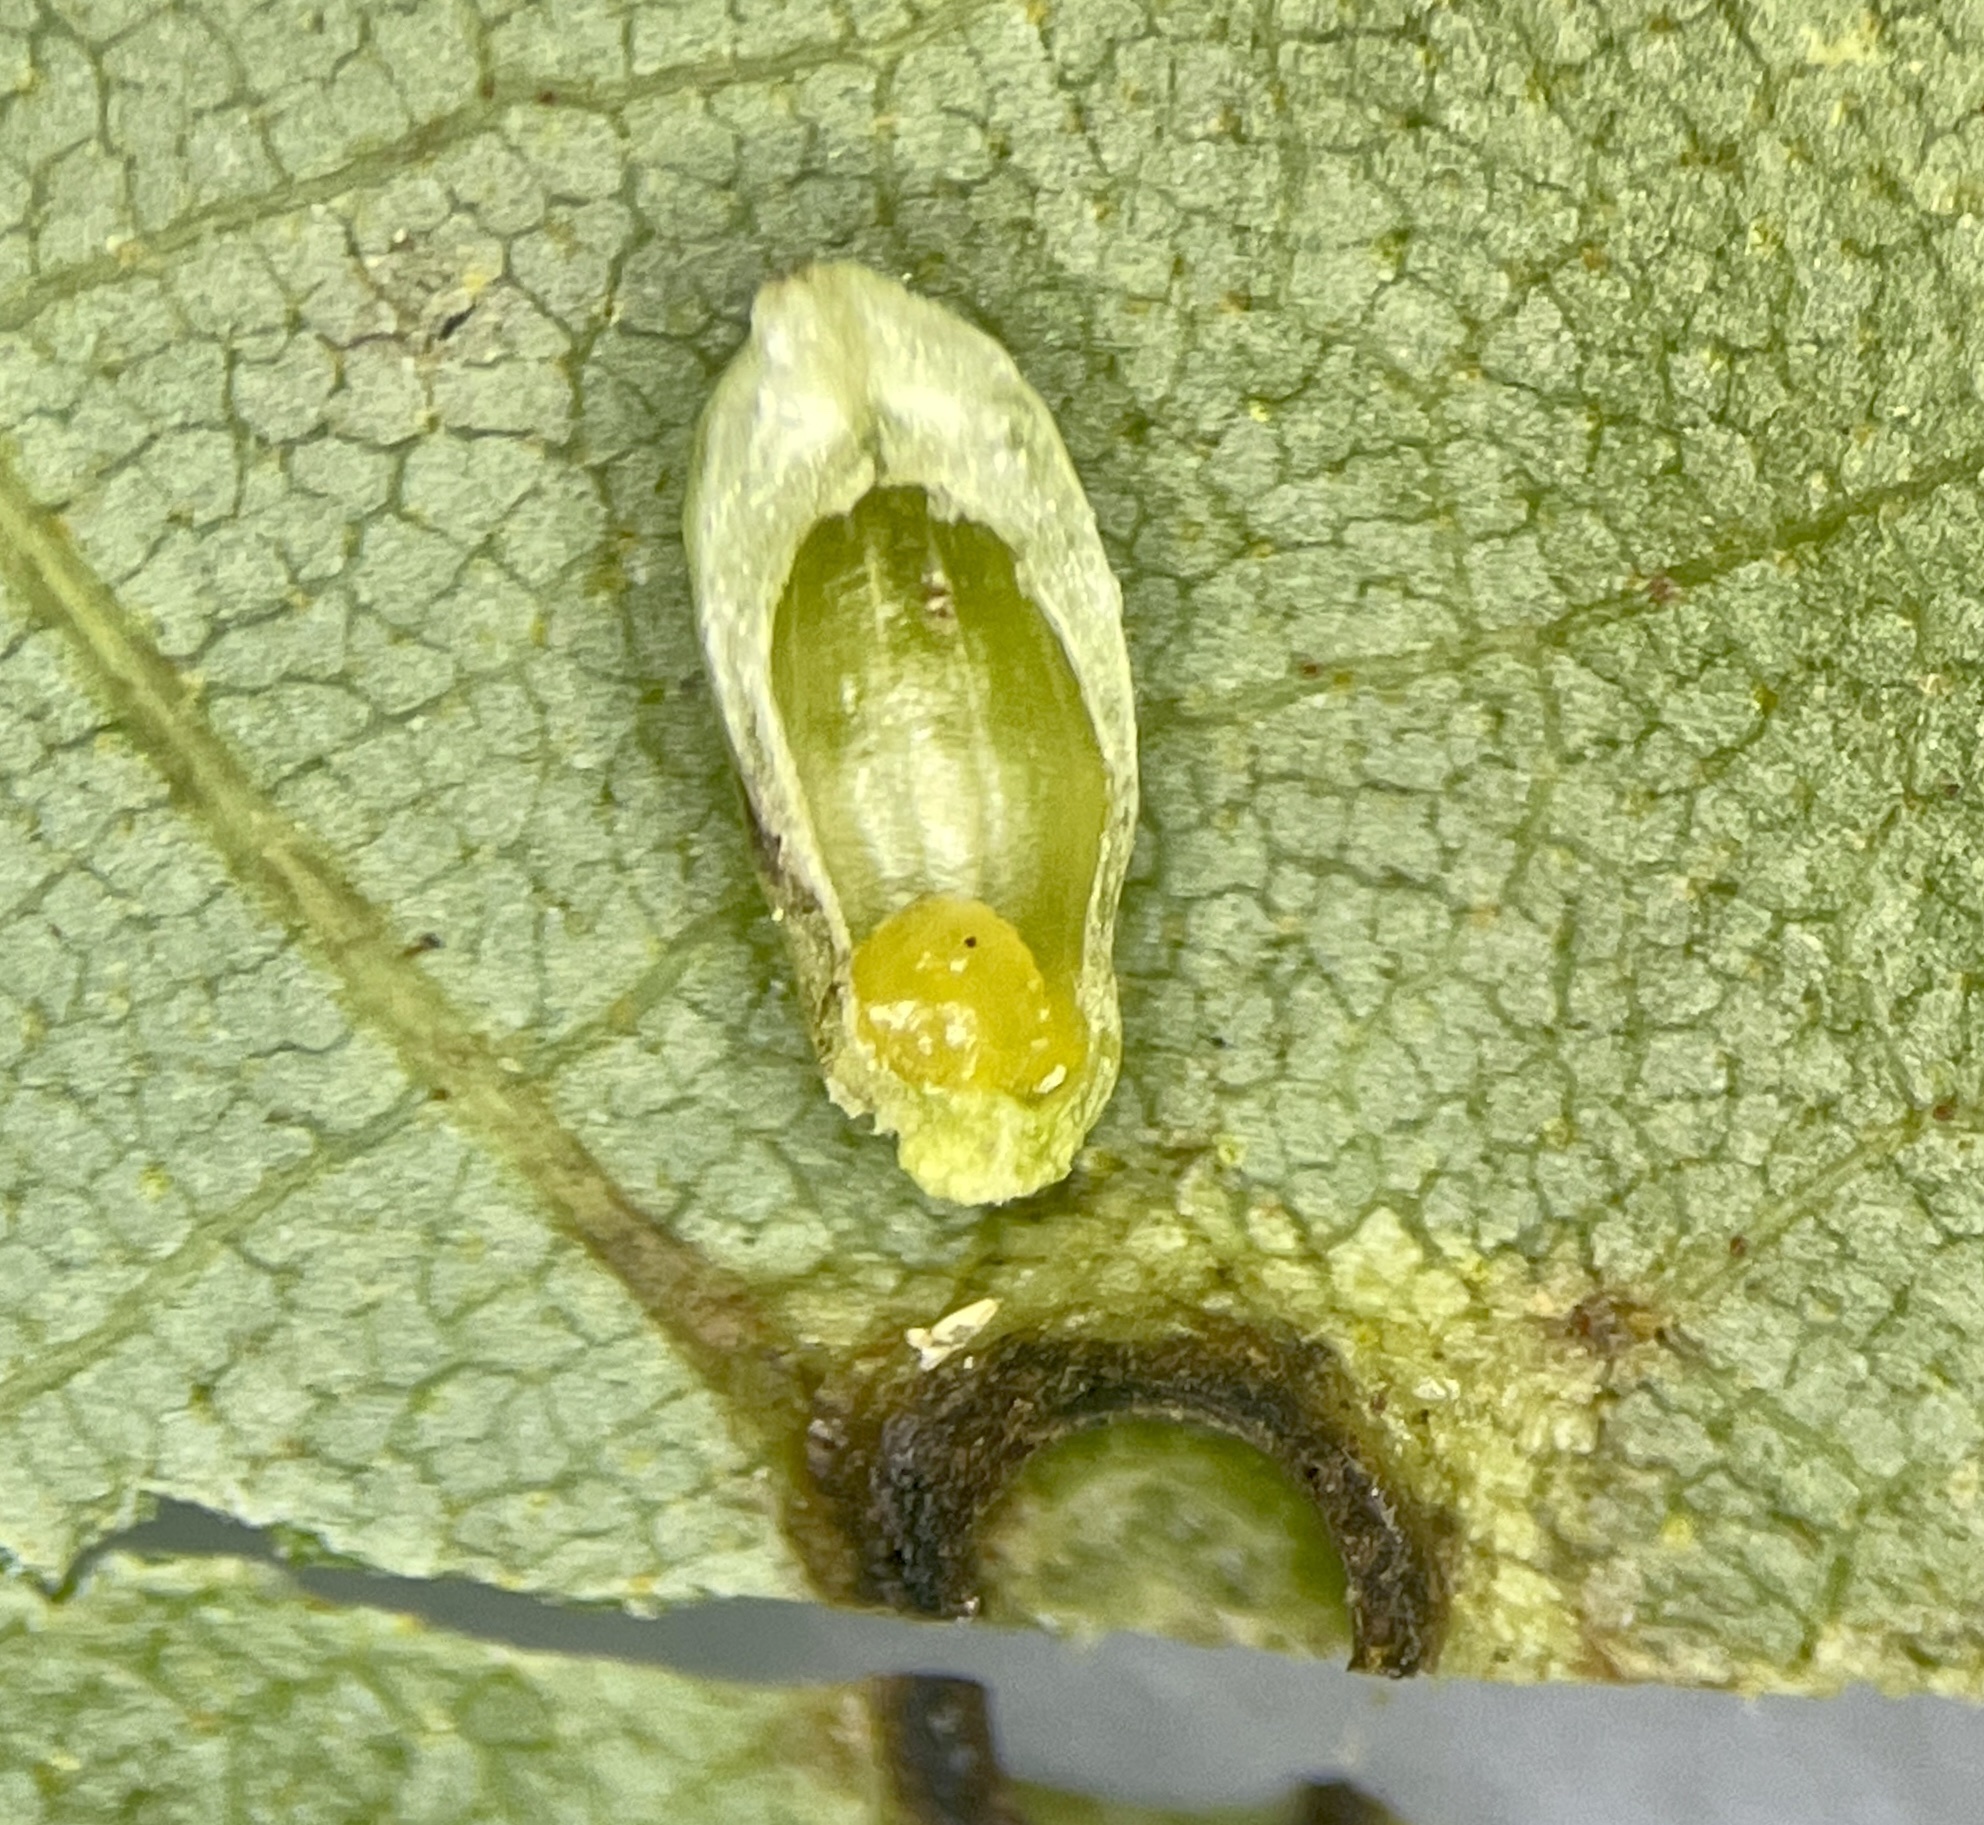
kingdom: Animalia
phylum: Arthropoda
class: Insecta
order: Diptera
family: Cecidomyiidae
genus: Caryomyia
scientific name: Caryomyia tubicola
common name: Hickory bullet gall midge
